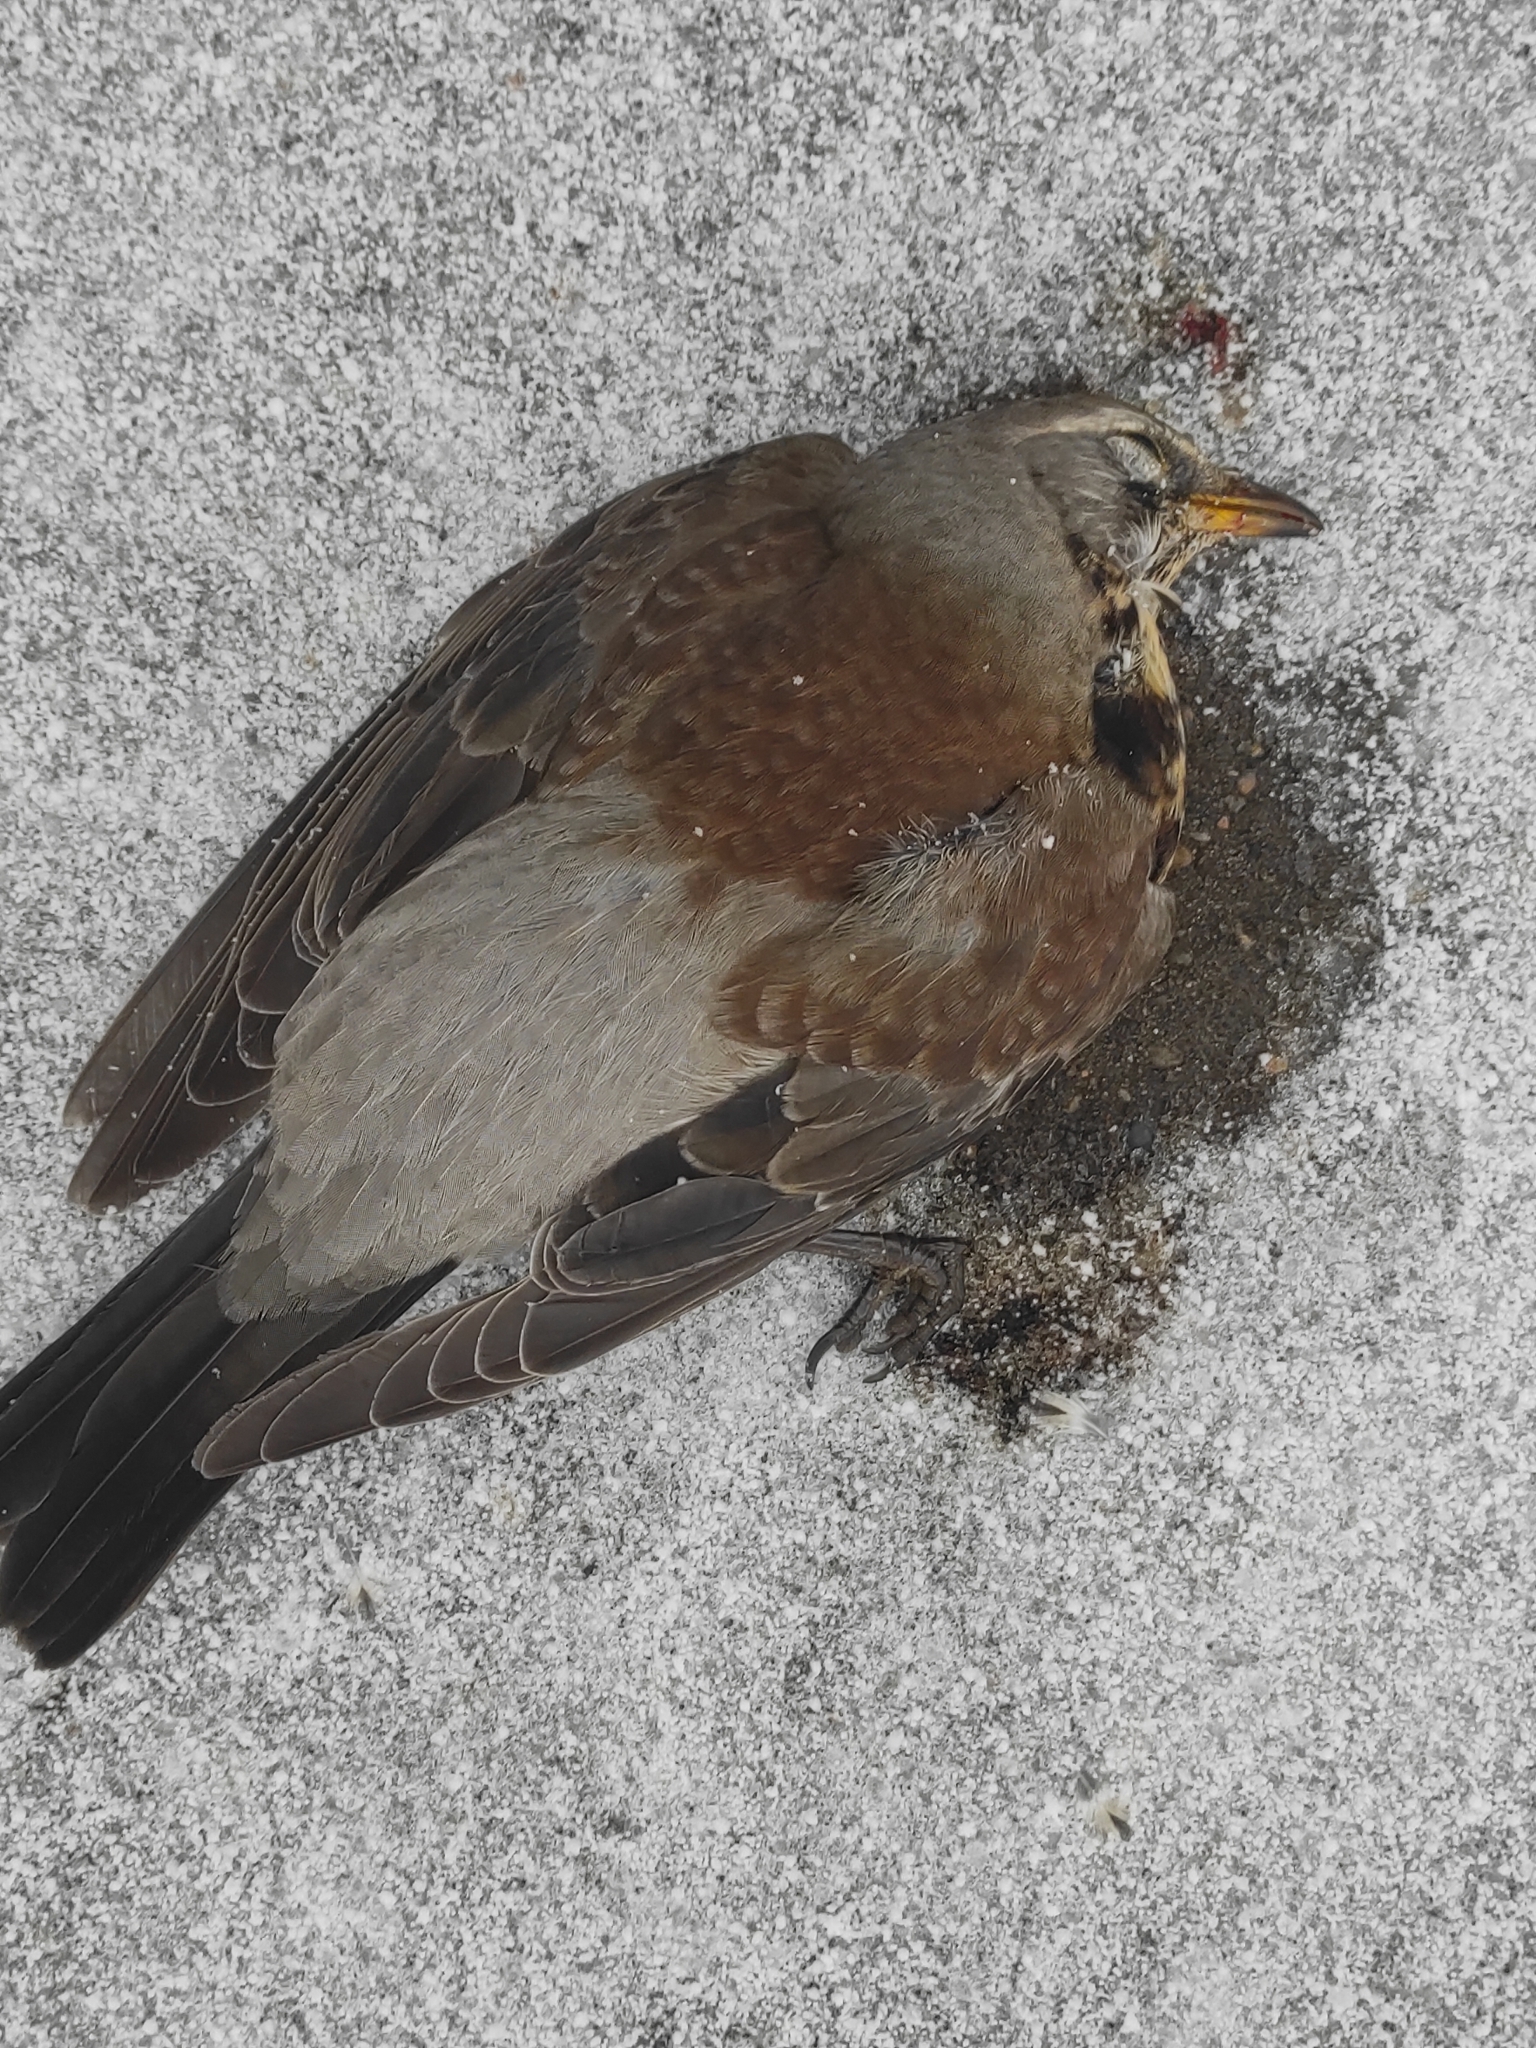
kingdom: Animalia
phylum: Chordata
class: Aves
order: Passeriformes
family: Turdidae
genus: Turdus
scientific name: Turdus pilaris
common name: Fieldfare
